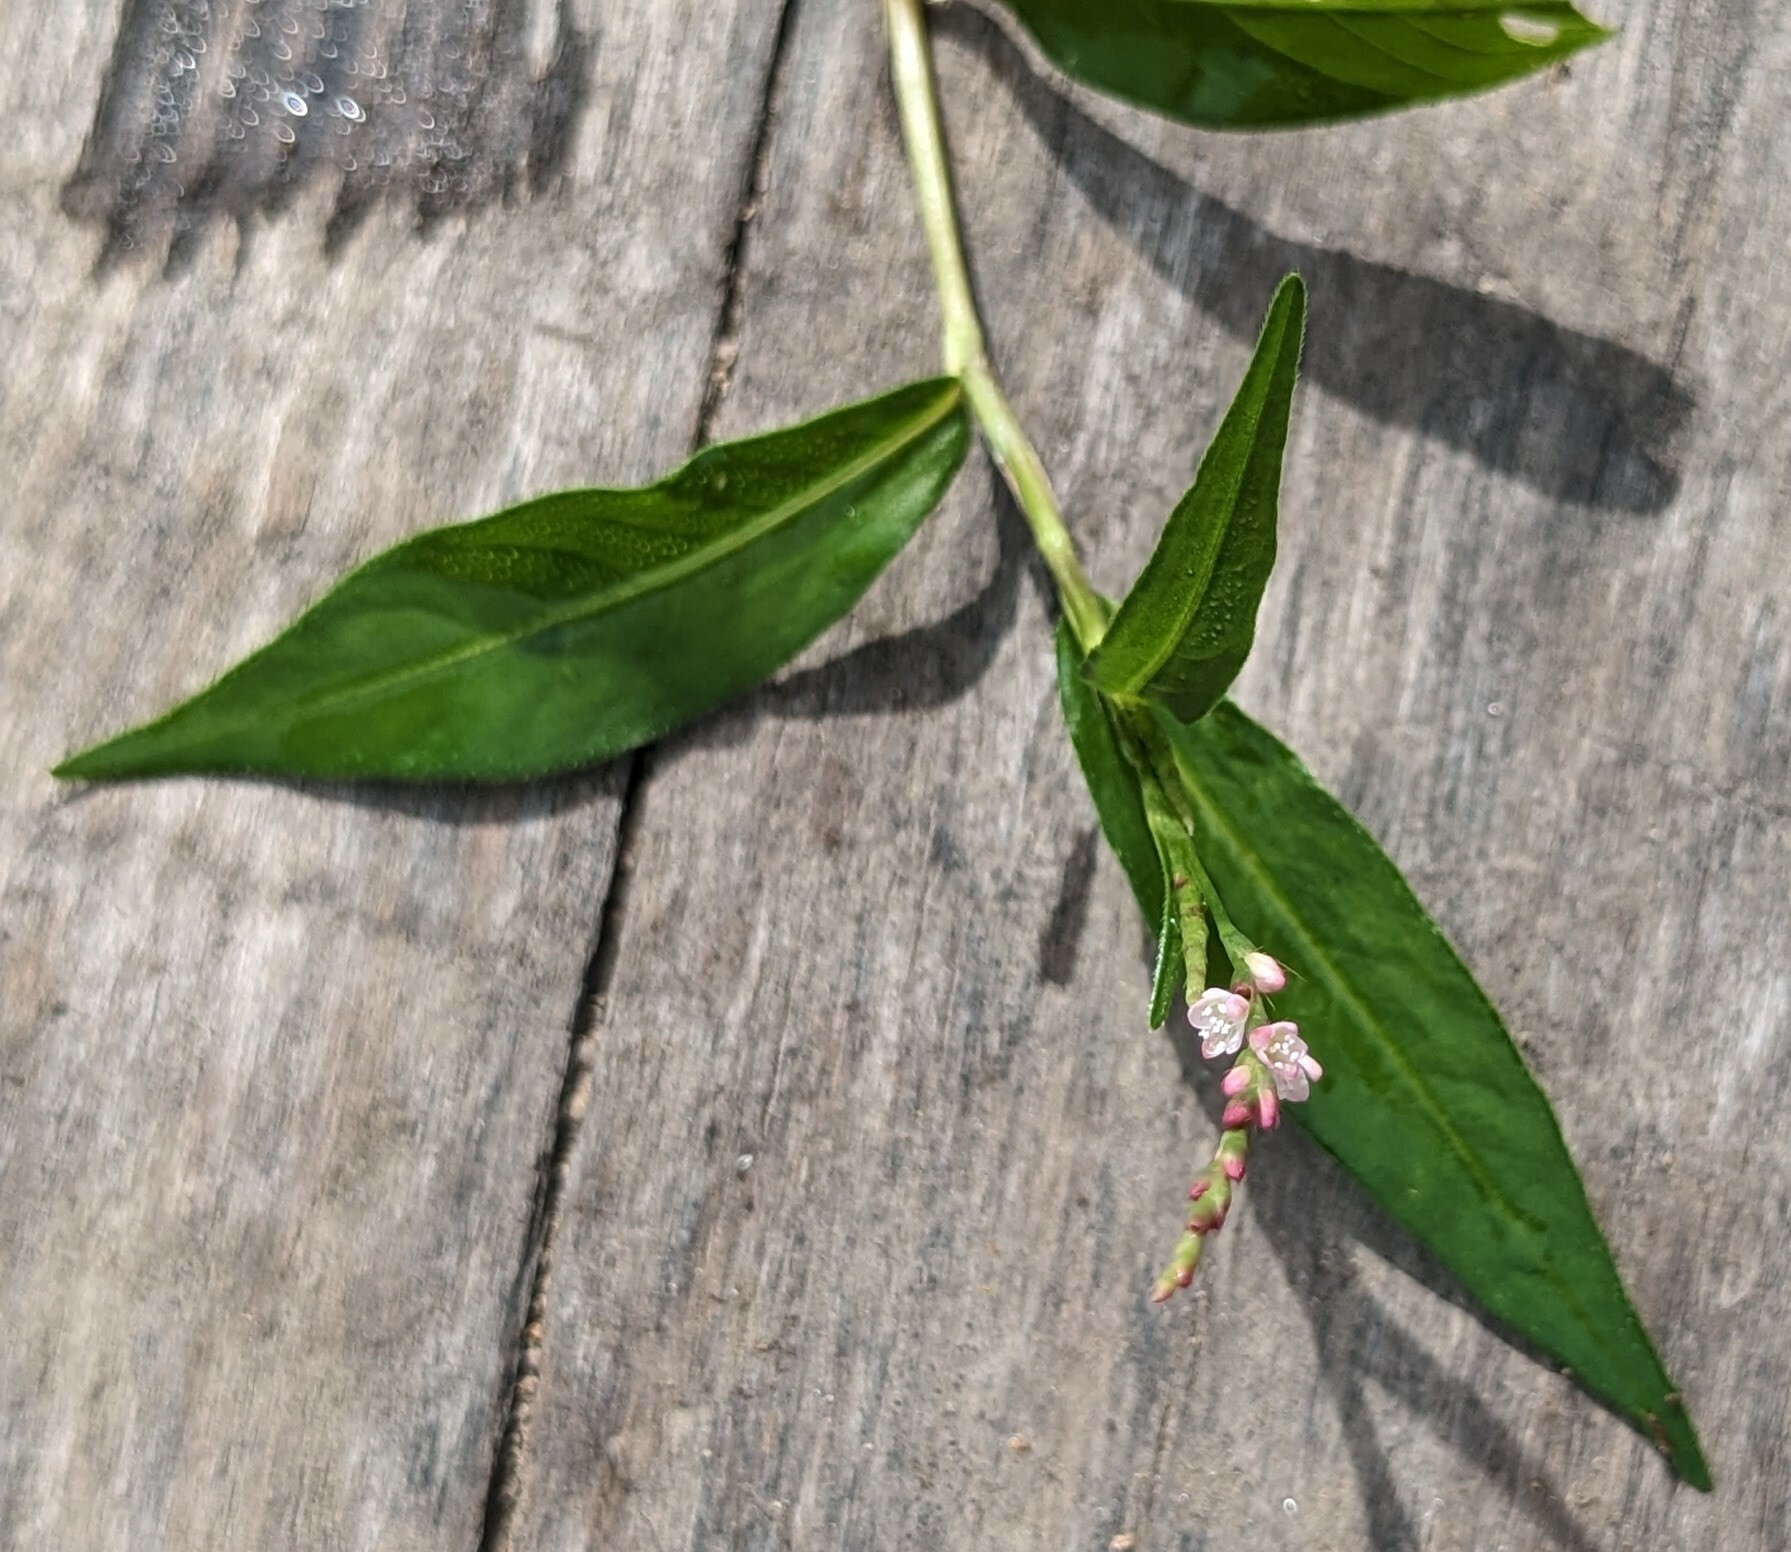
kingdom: Plantae
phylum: Tracheophyta
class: Magnoliopsida
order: Caryophyllales
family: Polygonaceae
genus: Persicaria
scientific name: Persicaria longiseta
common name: Bristly lady's-thumb
